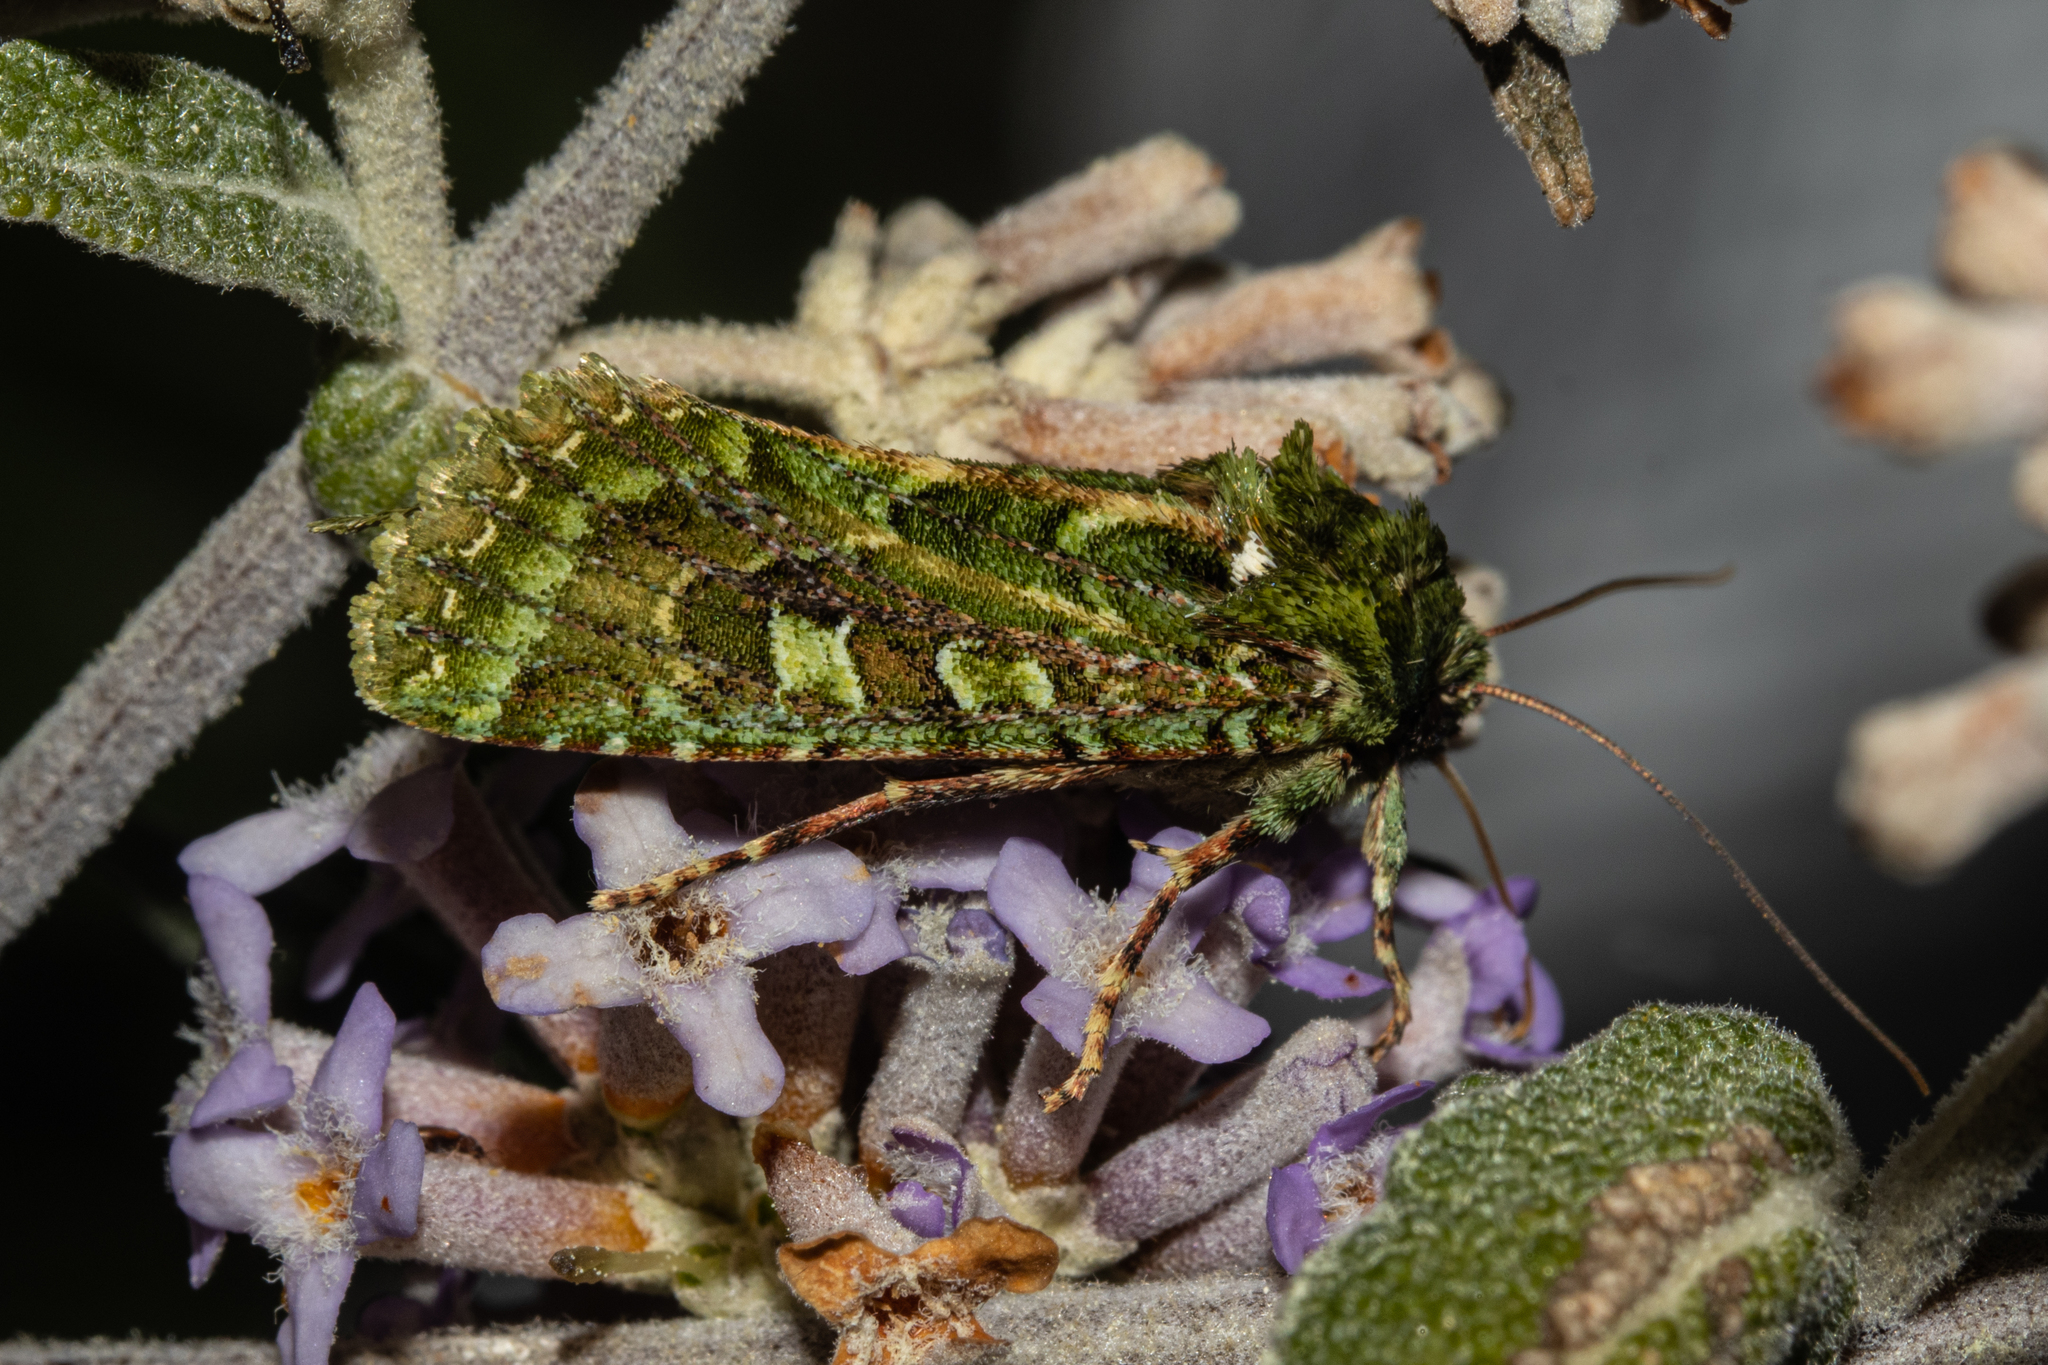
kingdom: Animalia
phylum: Arthropoda
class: Insecta
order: Lepidoptera
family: Noctuidae
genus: Feredayia
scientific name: Feredayia grammosa
